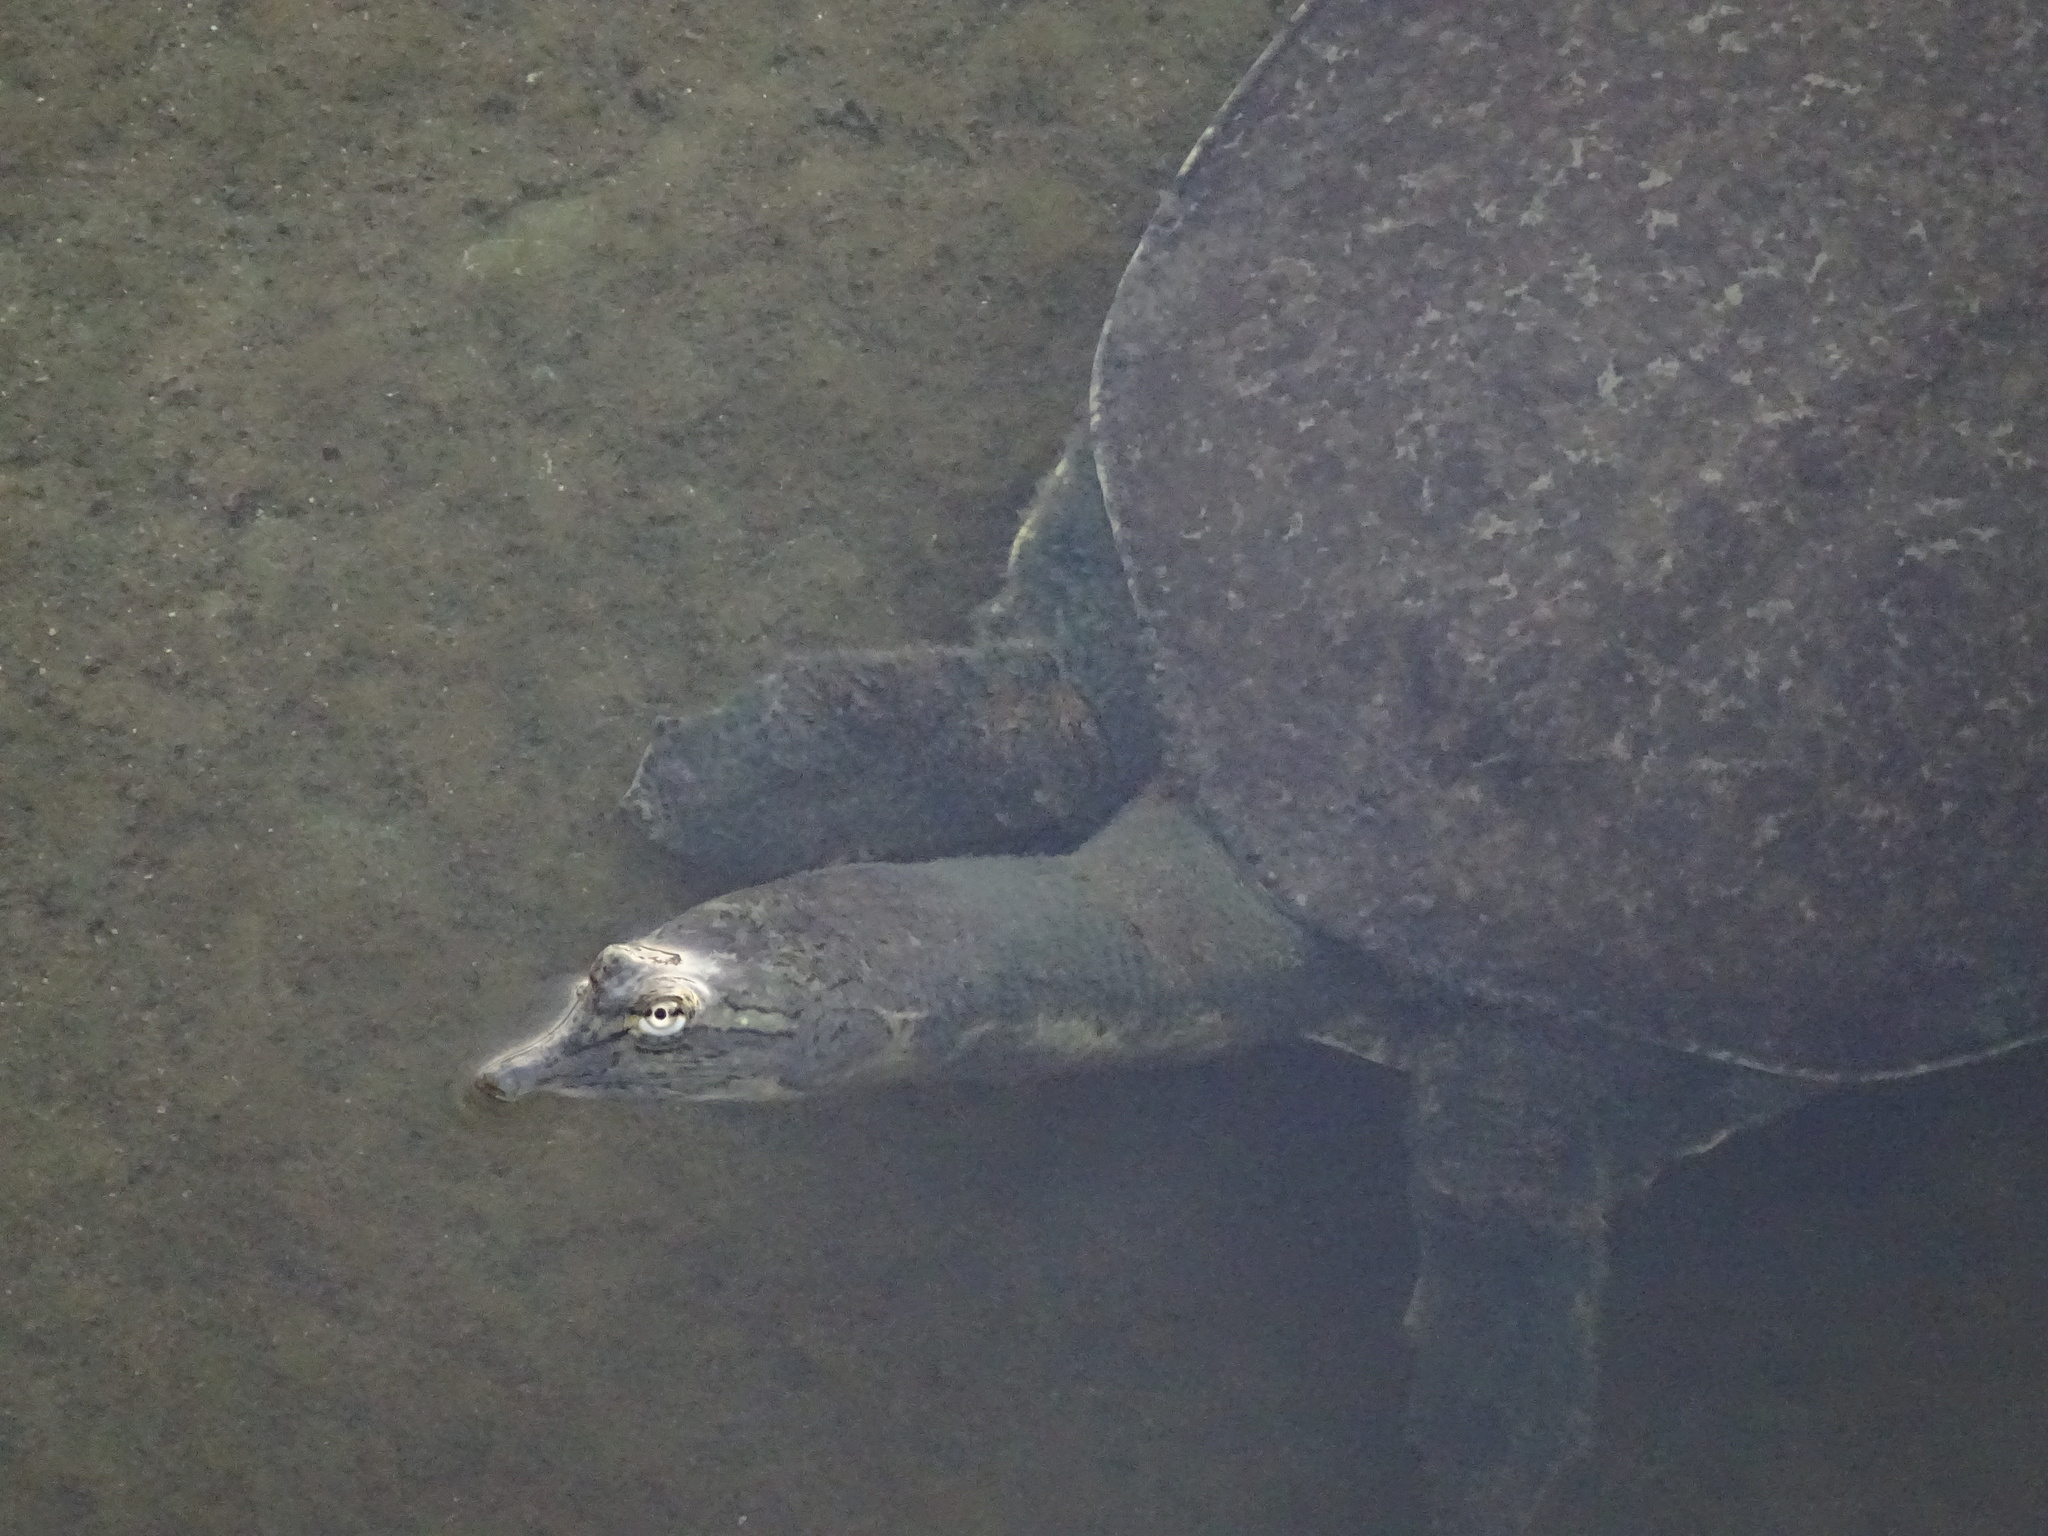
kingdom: Animalia
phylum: Chordata
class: Testudines
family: Trionychidae
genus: Apalone
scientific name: Apalone spinifera
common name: Spiny softshell turtle
